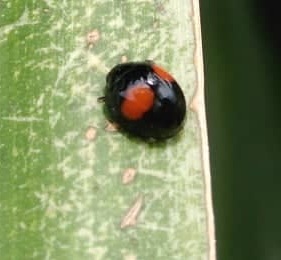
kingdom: Animalia
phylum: Arthropoda
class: Insecta
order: Coleoptera
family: Coccinellidae
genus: Chilocorus
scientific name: Chilocorus cacti
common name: Cactus lady beetle
